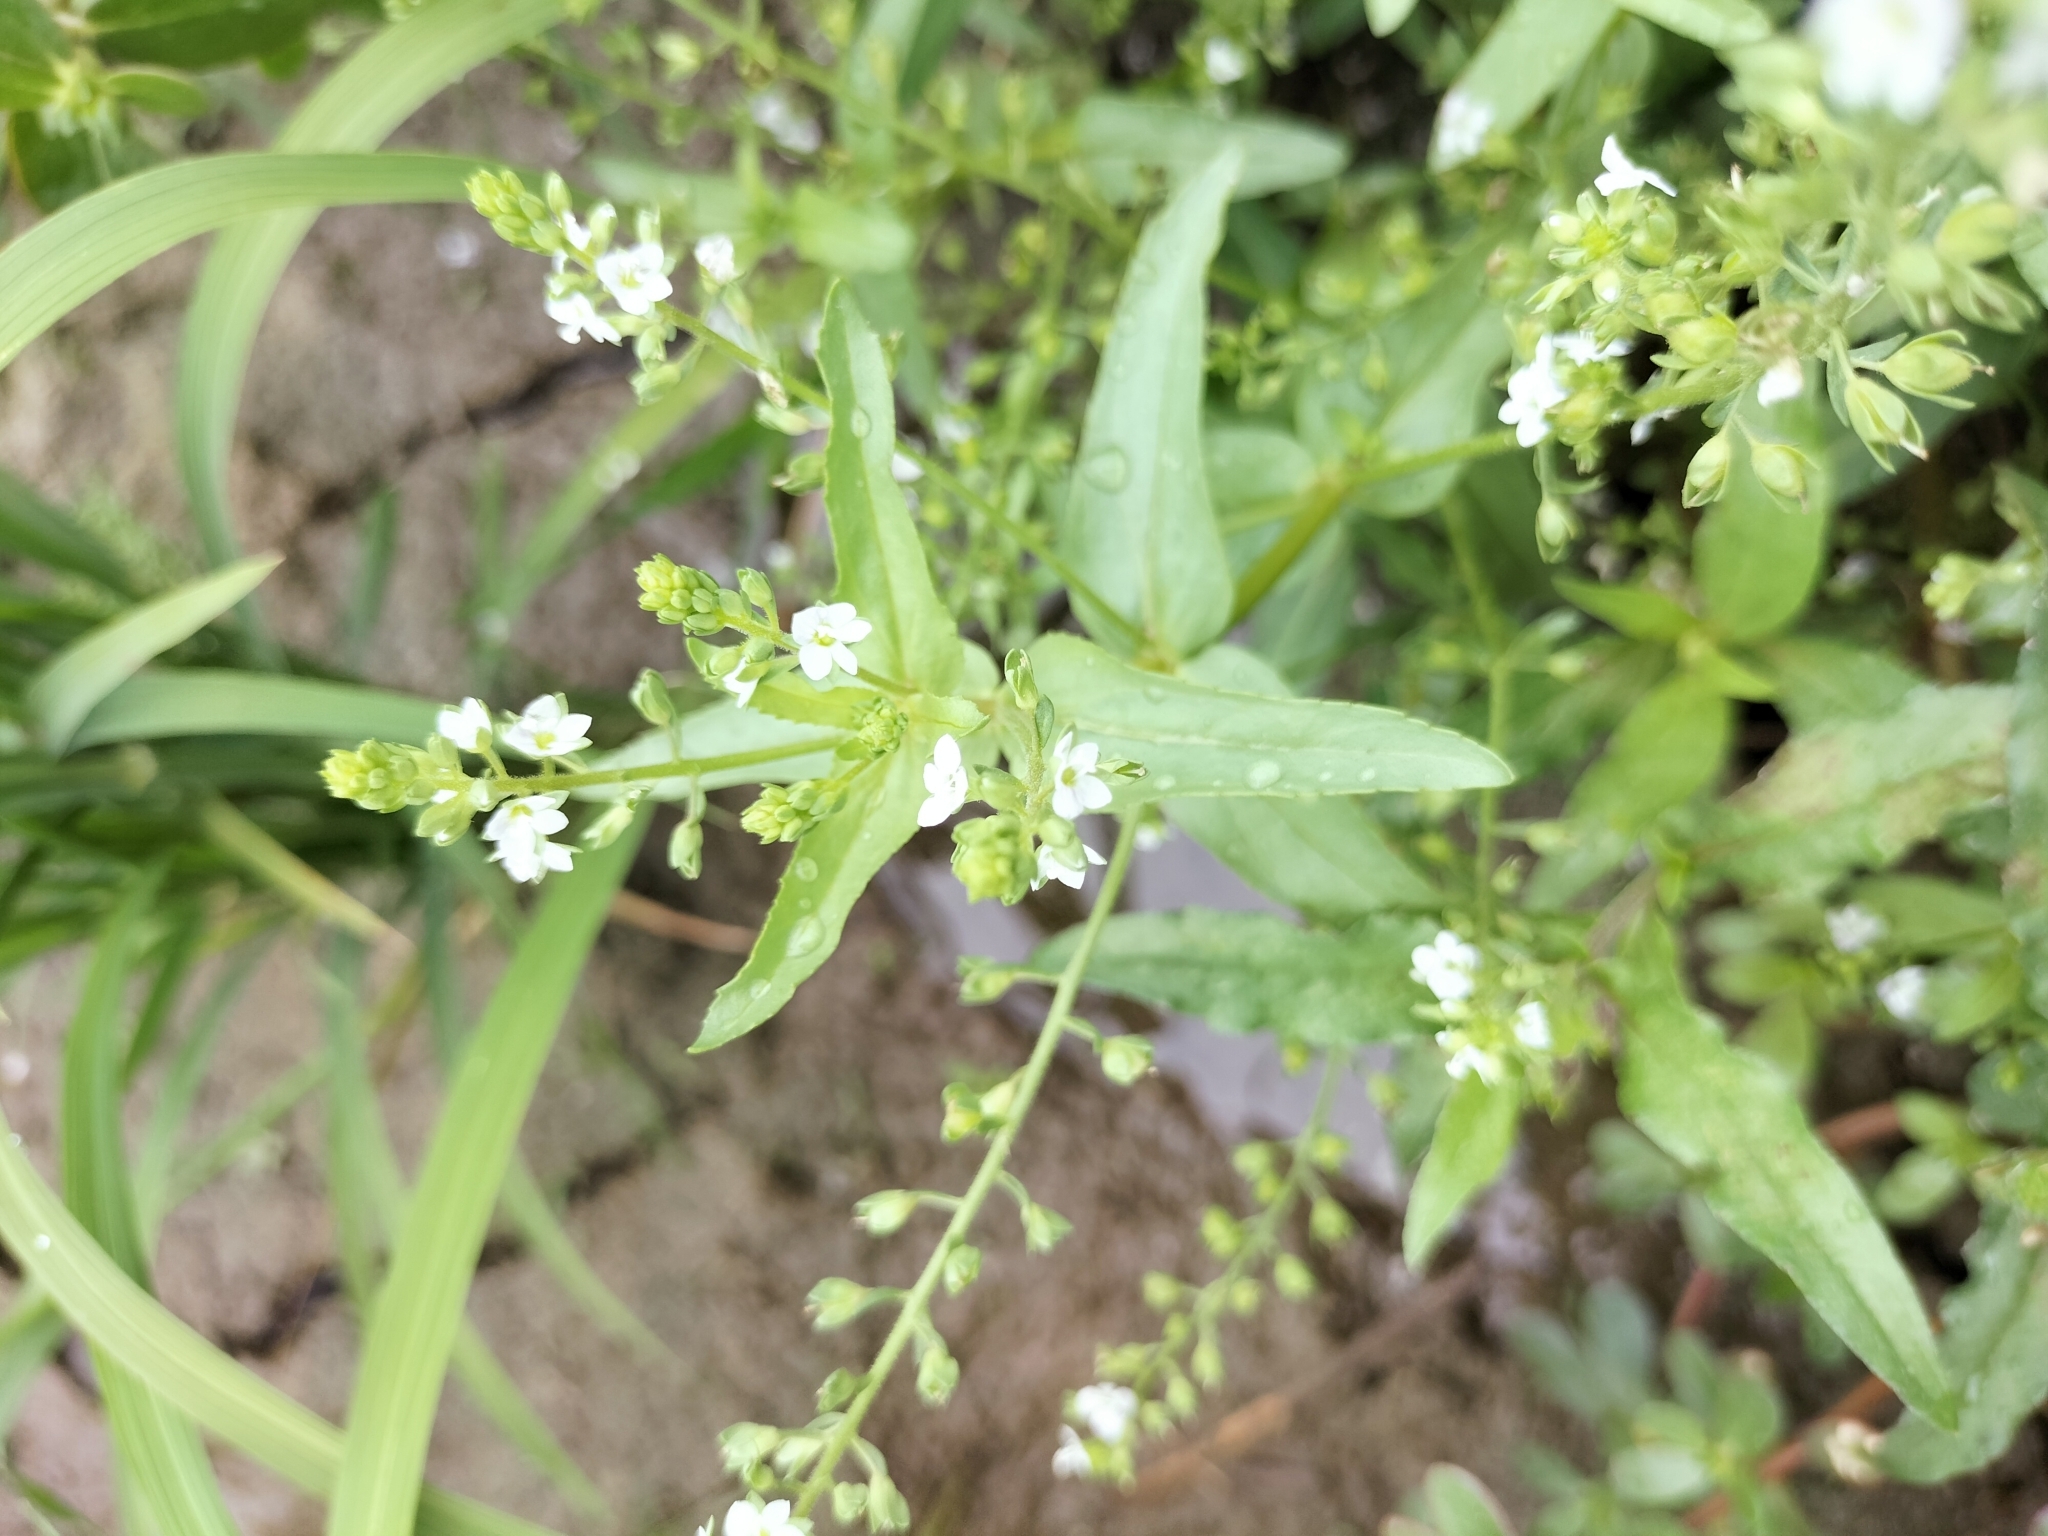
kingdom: Plantae
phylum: Tracheophyta
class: Magnoliopsida
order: Lamiales
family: Plantaginaceae
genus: Veronica
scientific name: Veronica undulata
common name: Undulate speedwell
